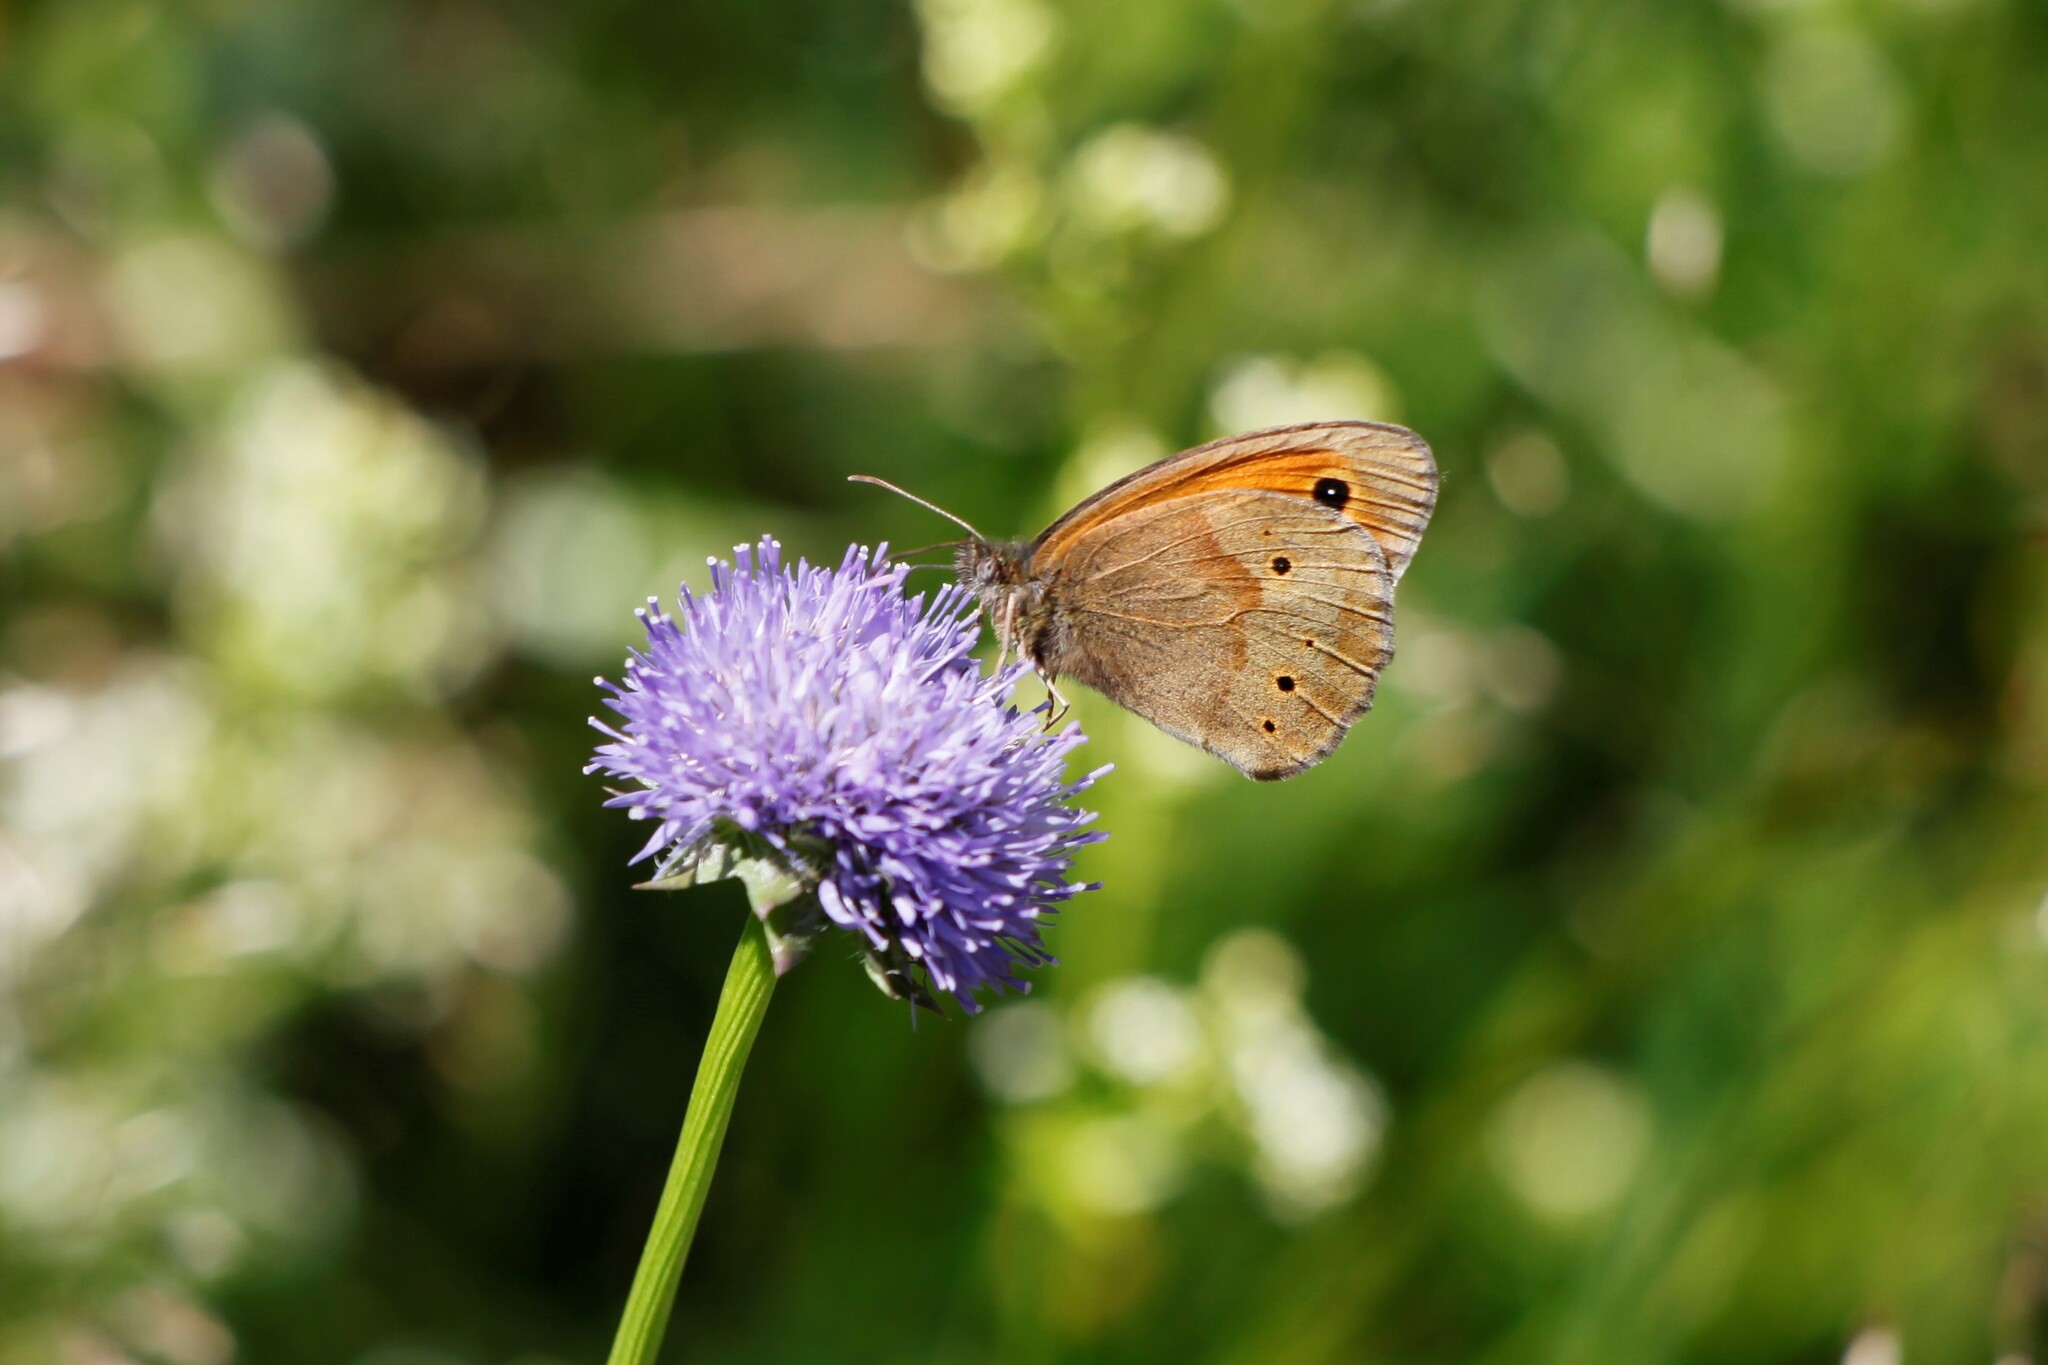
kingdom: Animalia
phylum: Arthropoda
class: Insecta
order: Lepidoptera
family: Nymphalidae
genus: Maniola
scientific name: Maniola jurtina
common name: Meadow brown
